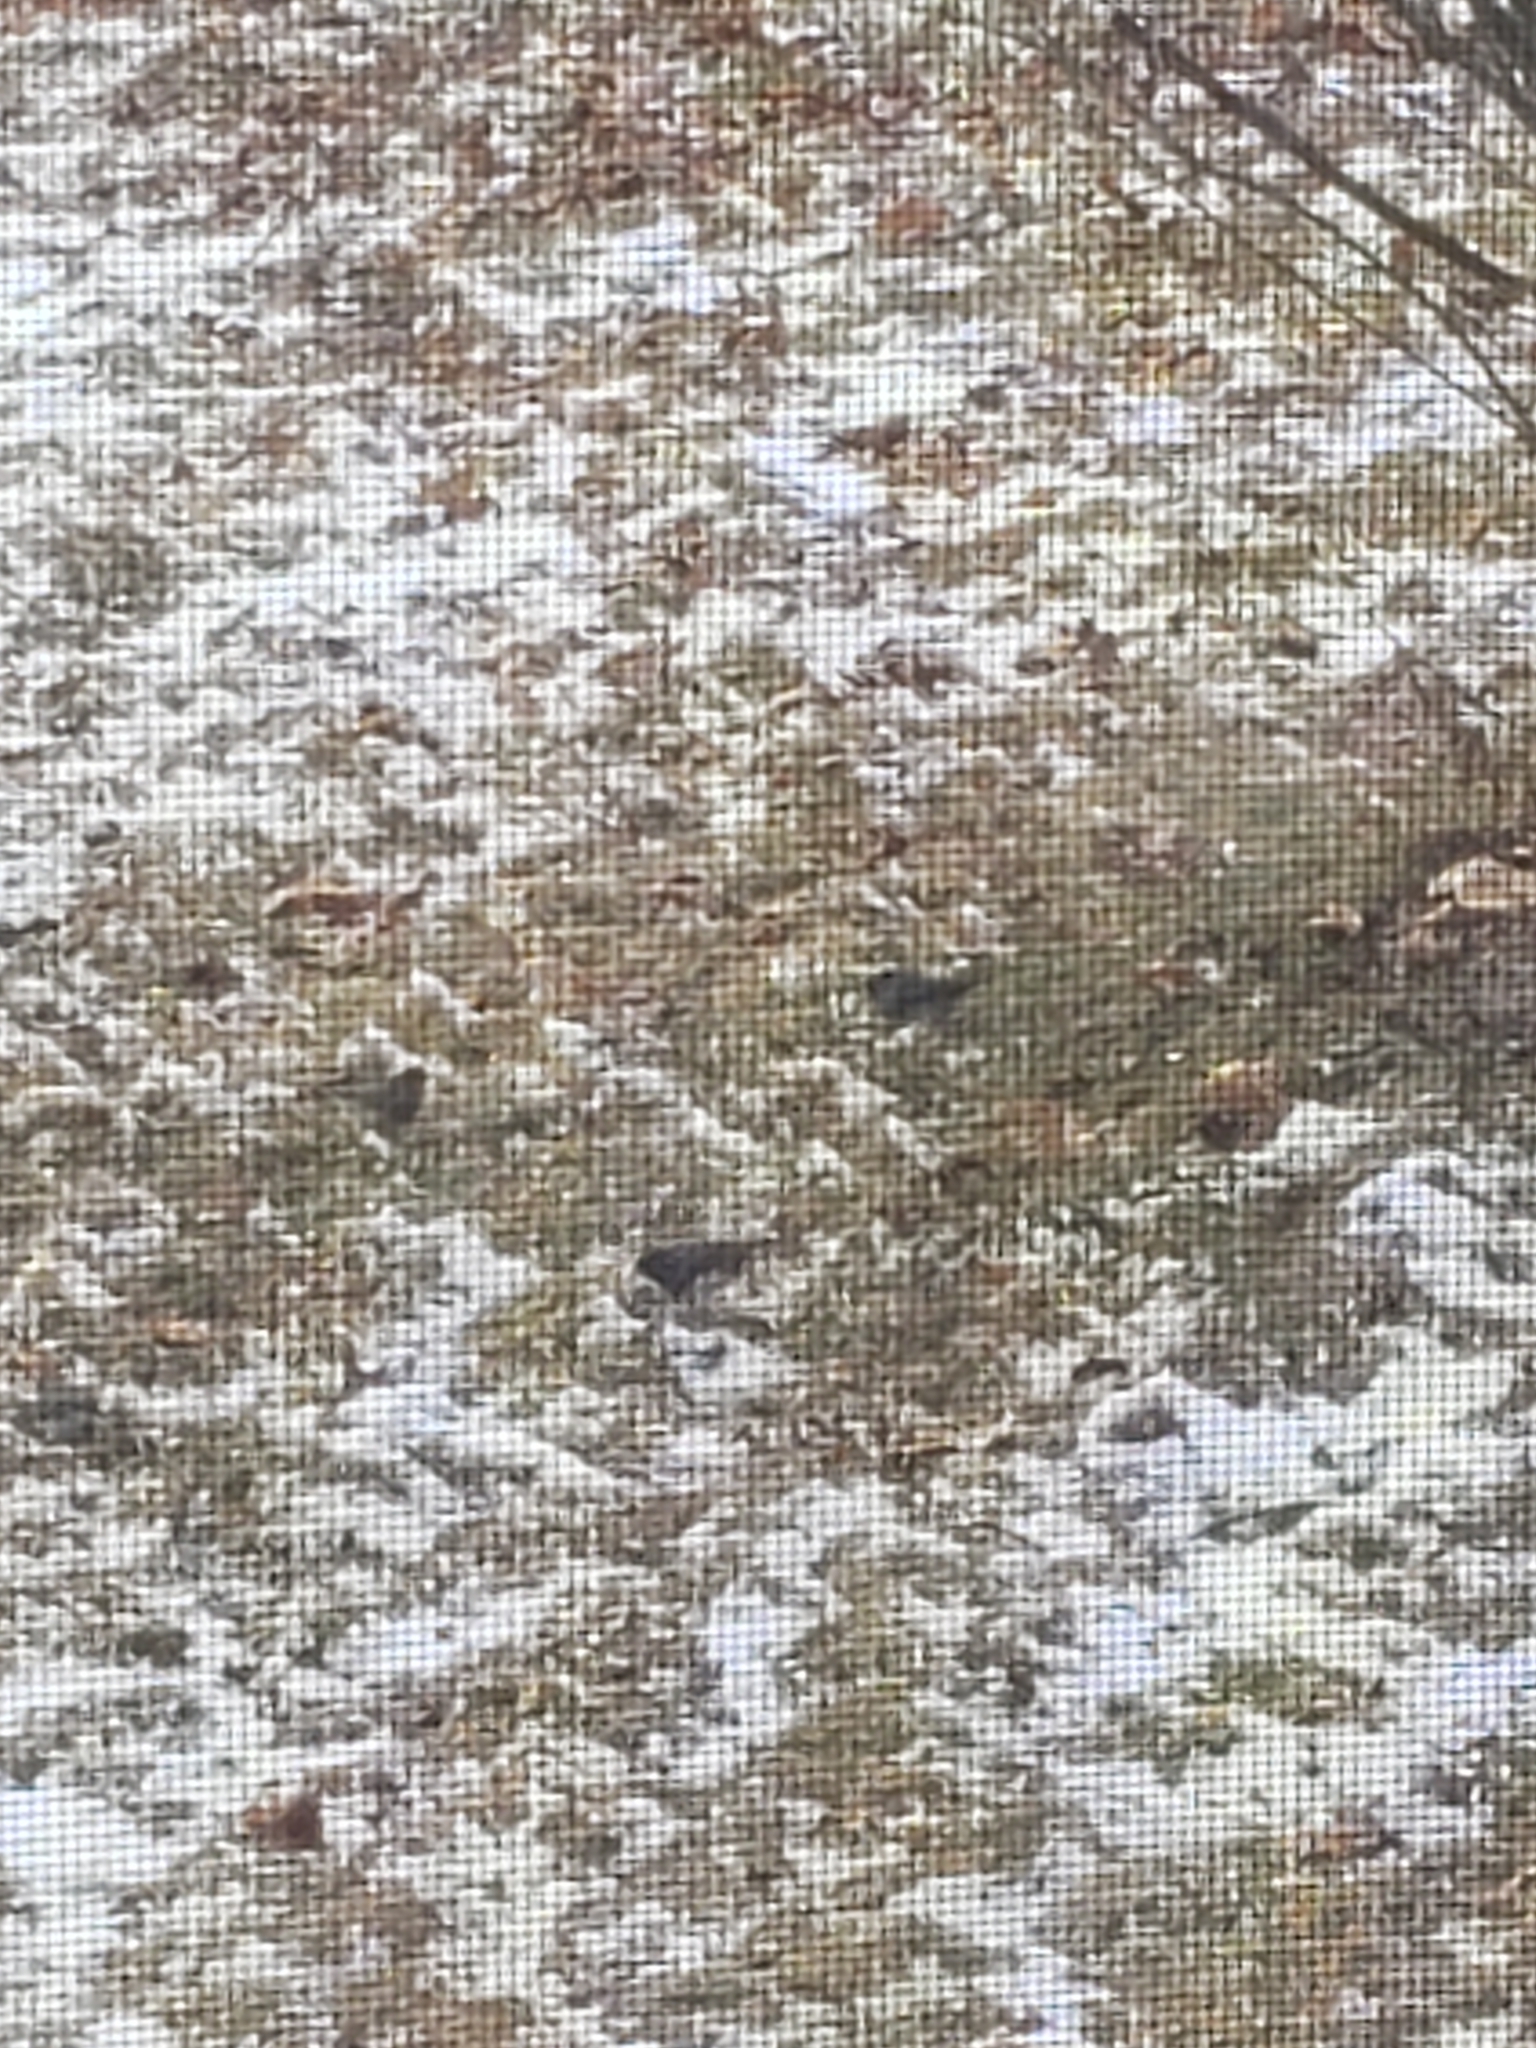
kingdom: Animalia
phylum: Chordata
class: Aves
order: Passeriformes
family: Passerellidae
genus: Junco
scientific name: Junco hyemalis
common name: Dark-eyed junco
